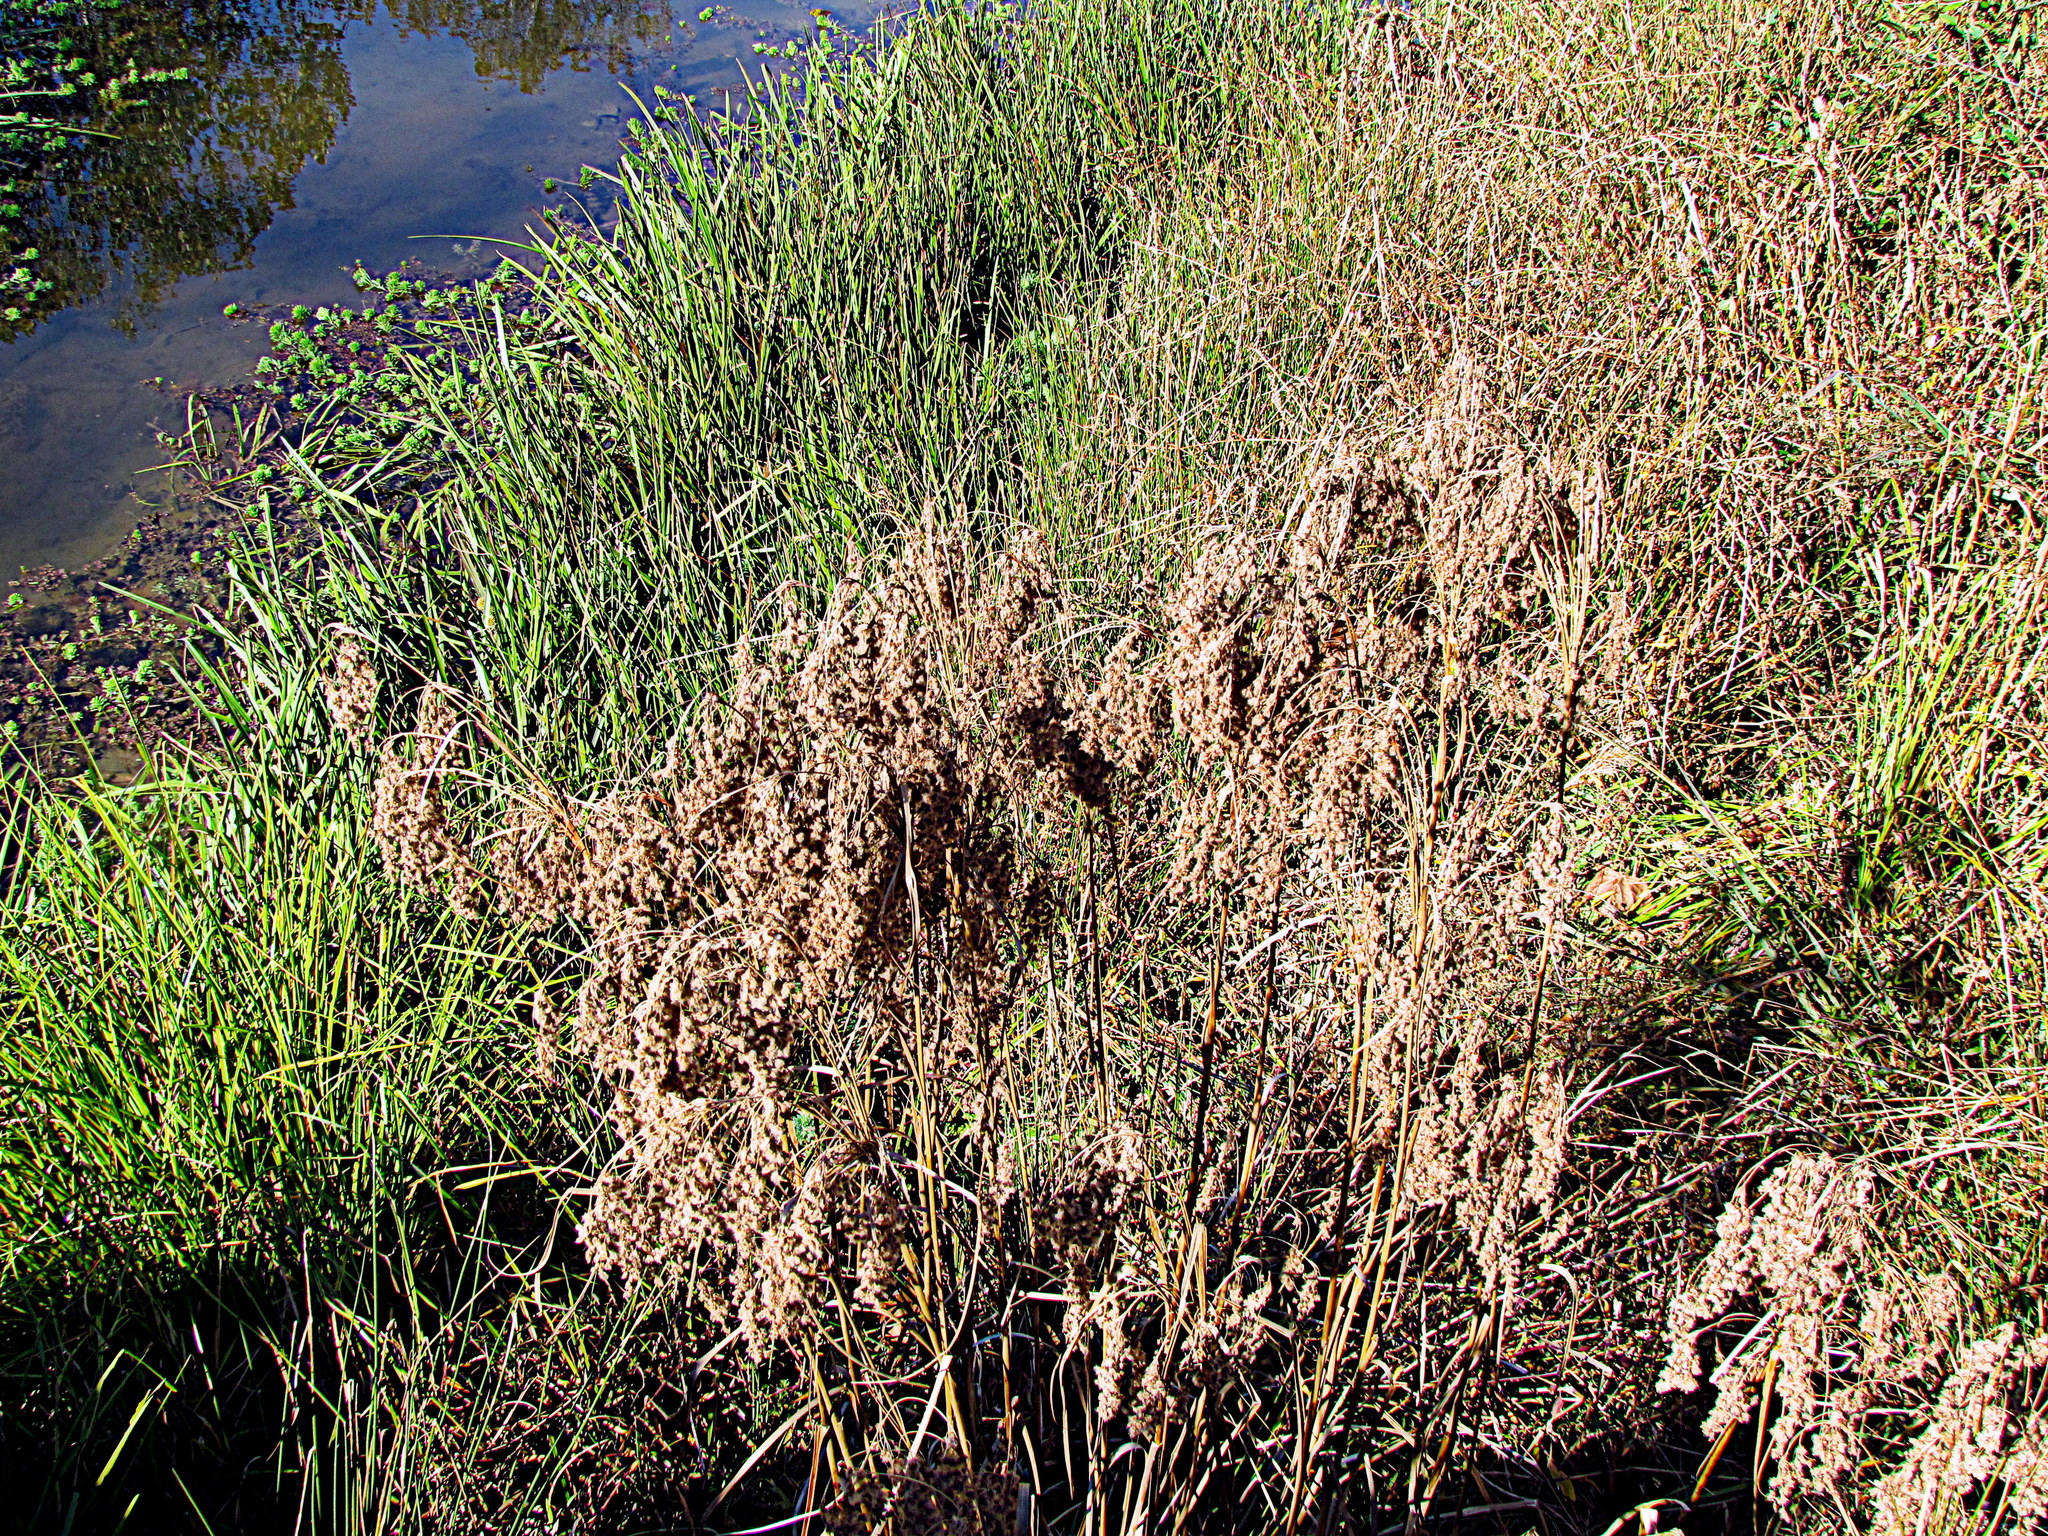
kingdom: Plantae
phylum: Tracheophyta
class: Liliopsida
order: Poales
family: Cyperaceae
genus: Scirpus
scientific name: Scirpus cyperinus
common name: Black-sheathed bulrush
